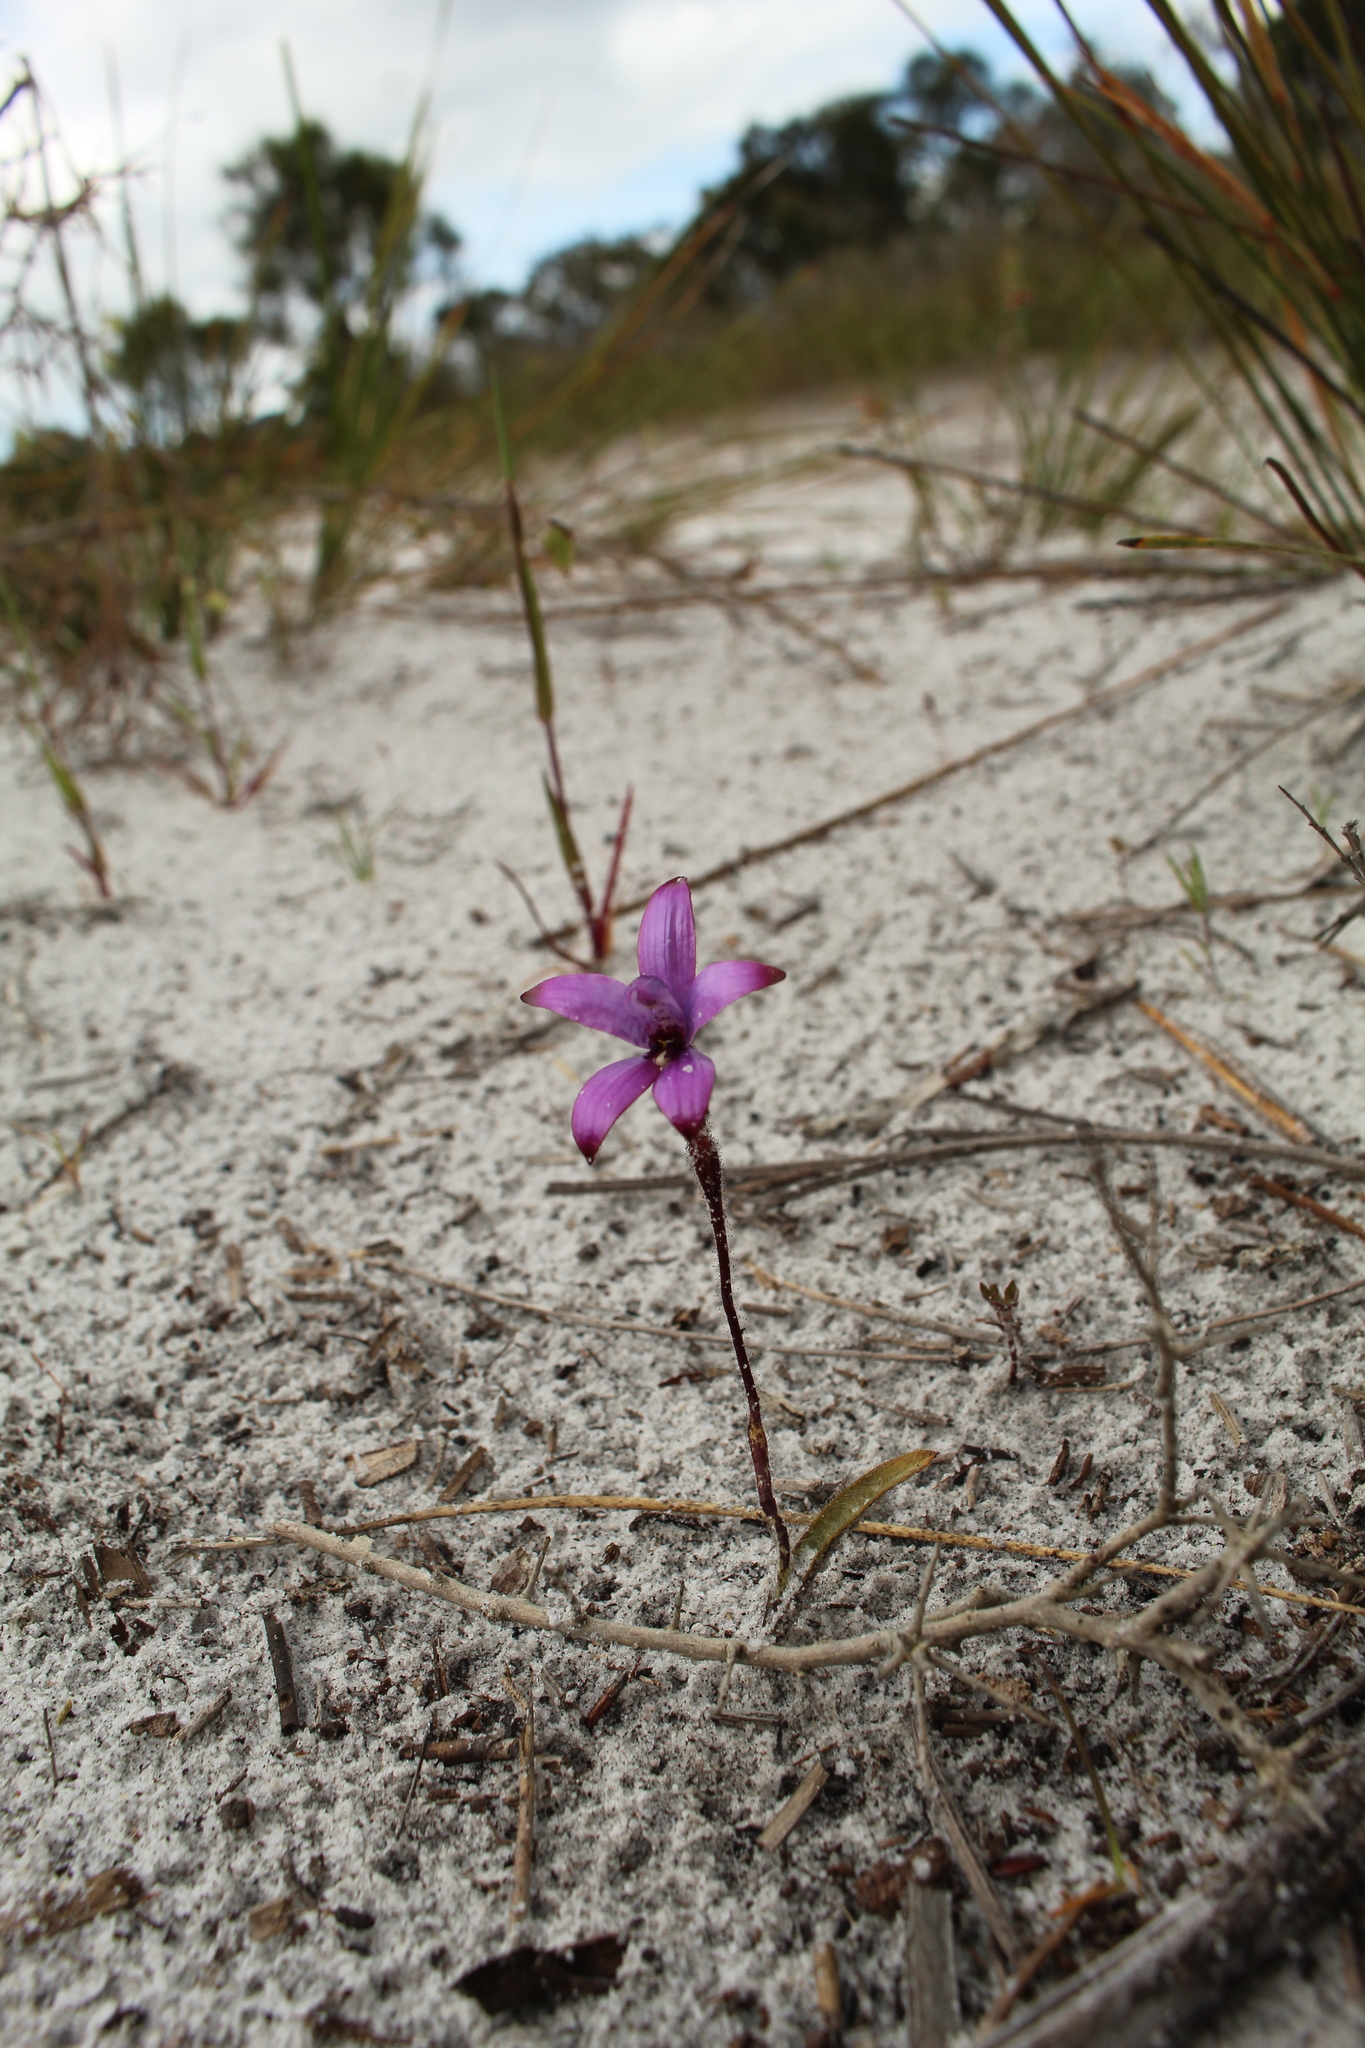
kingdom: Plantae
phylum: Tracheophyta
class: Liliopsida
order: Asparagales
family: Orchidaceae
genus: Caladenia
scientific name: Caladenia brunonis
